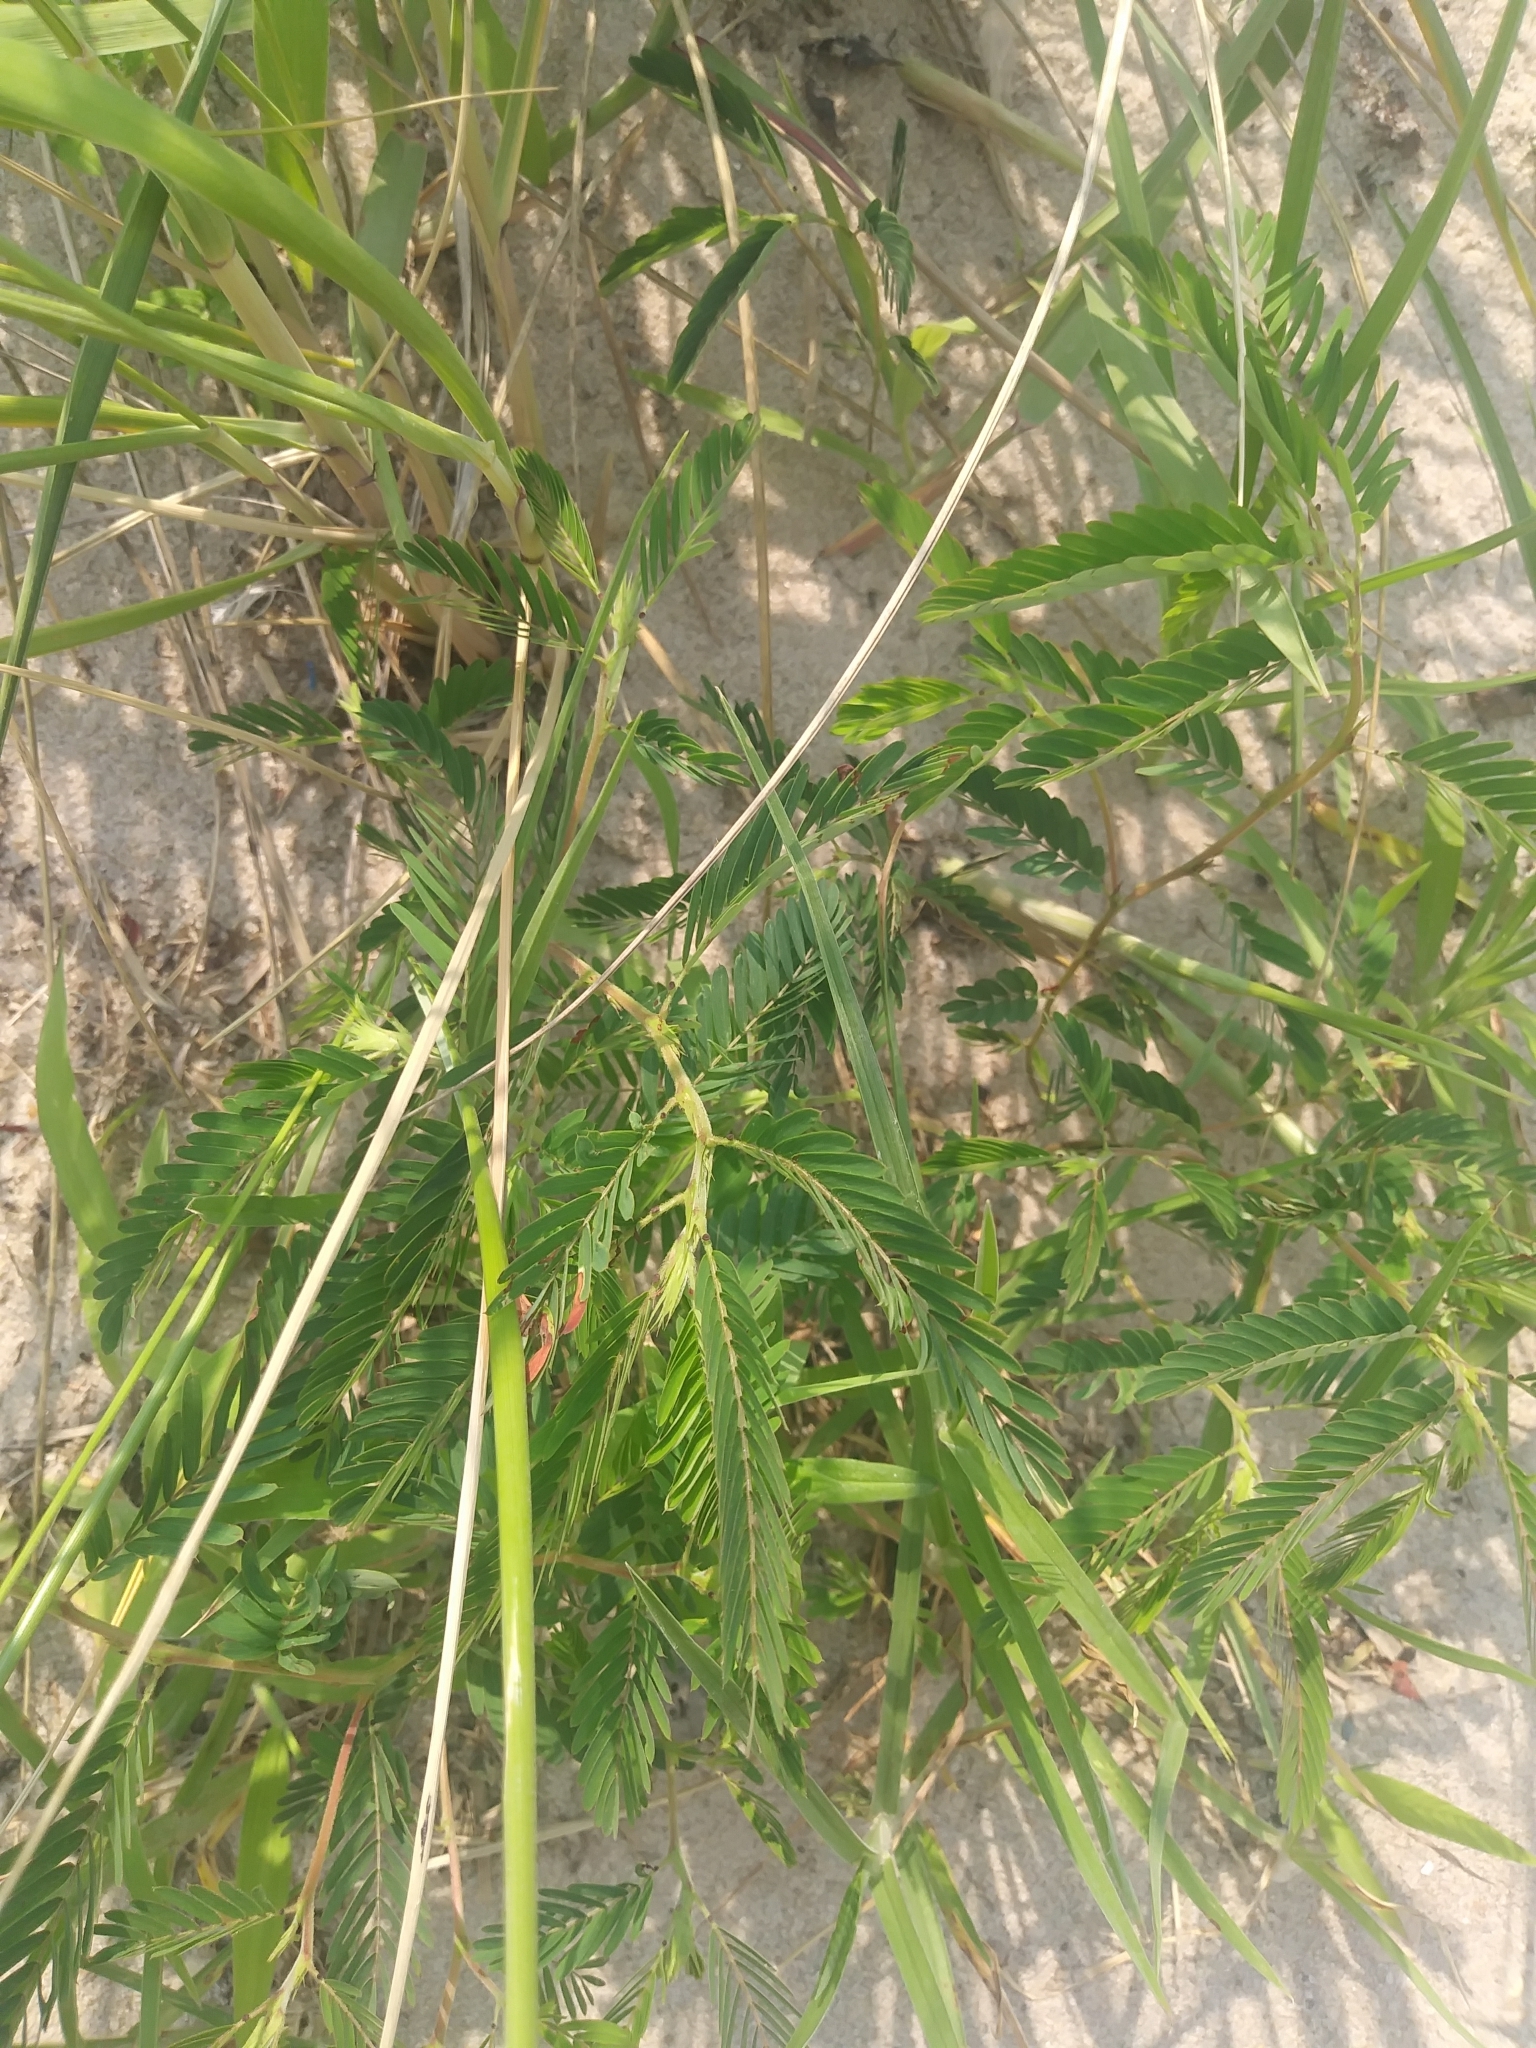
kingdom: Plantae
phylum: Tracheophyta
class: Magnoliopsida
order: Fabales
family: Fabaceae
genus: Chamaecrista
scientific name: Chamaecrista fasciculata
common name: Golden cassia
